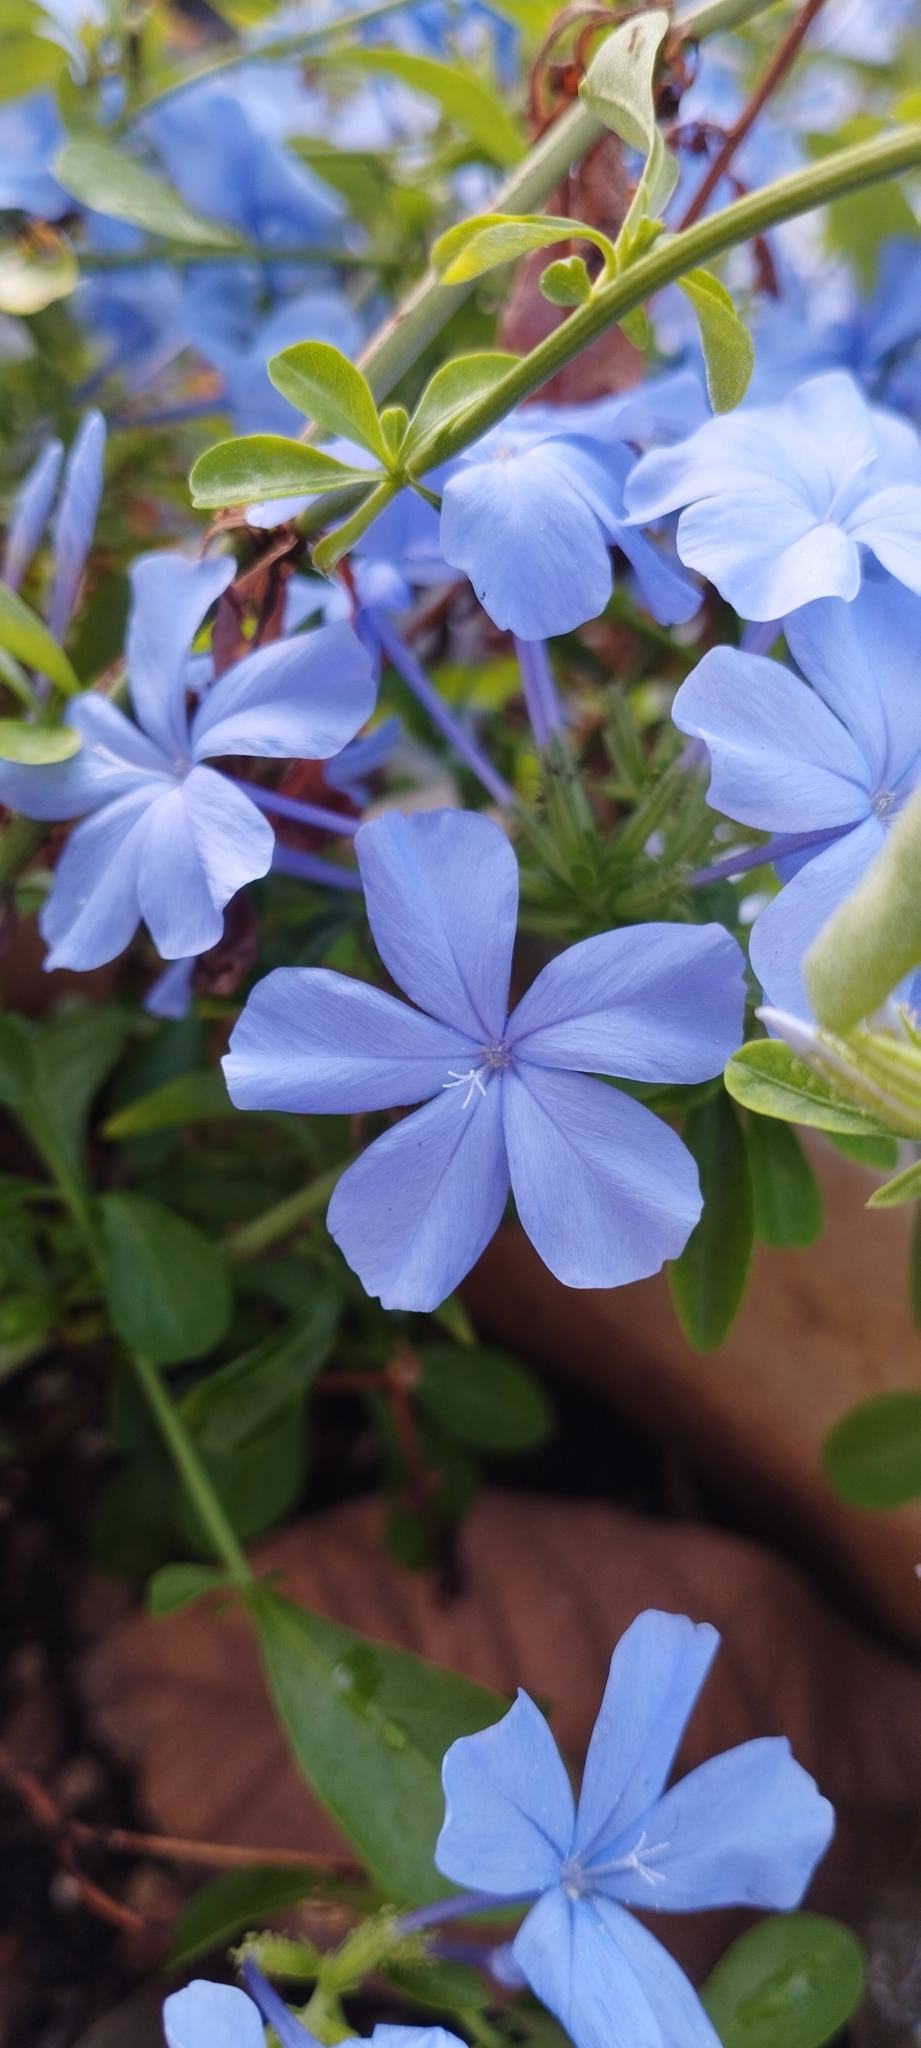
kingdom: Plantae
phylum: Tracheophyta
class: Magnoliopsida
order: Caryophyllales
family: Plumbaginaceae
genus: Plumbago
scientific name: Plumbago auriculata
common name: Cape leadwort
